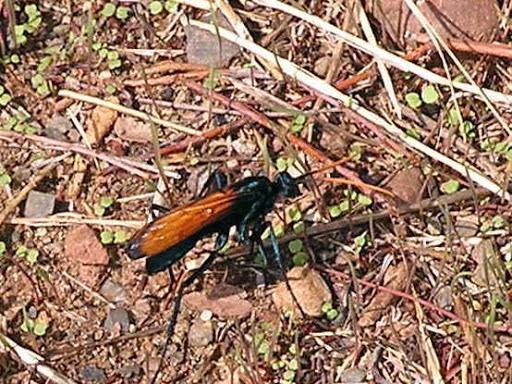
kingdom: Animalia
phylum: Arthropoda
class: Insecta
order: Hymenoptera
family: Pompilidae
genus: Pepsis
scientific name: Pepsis
